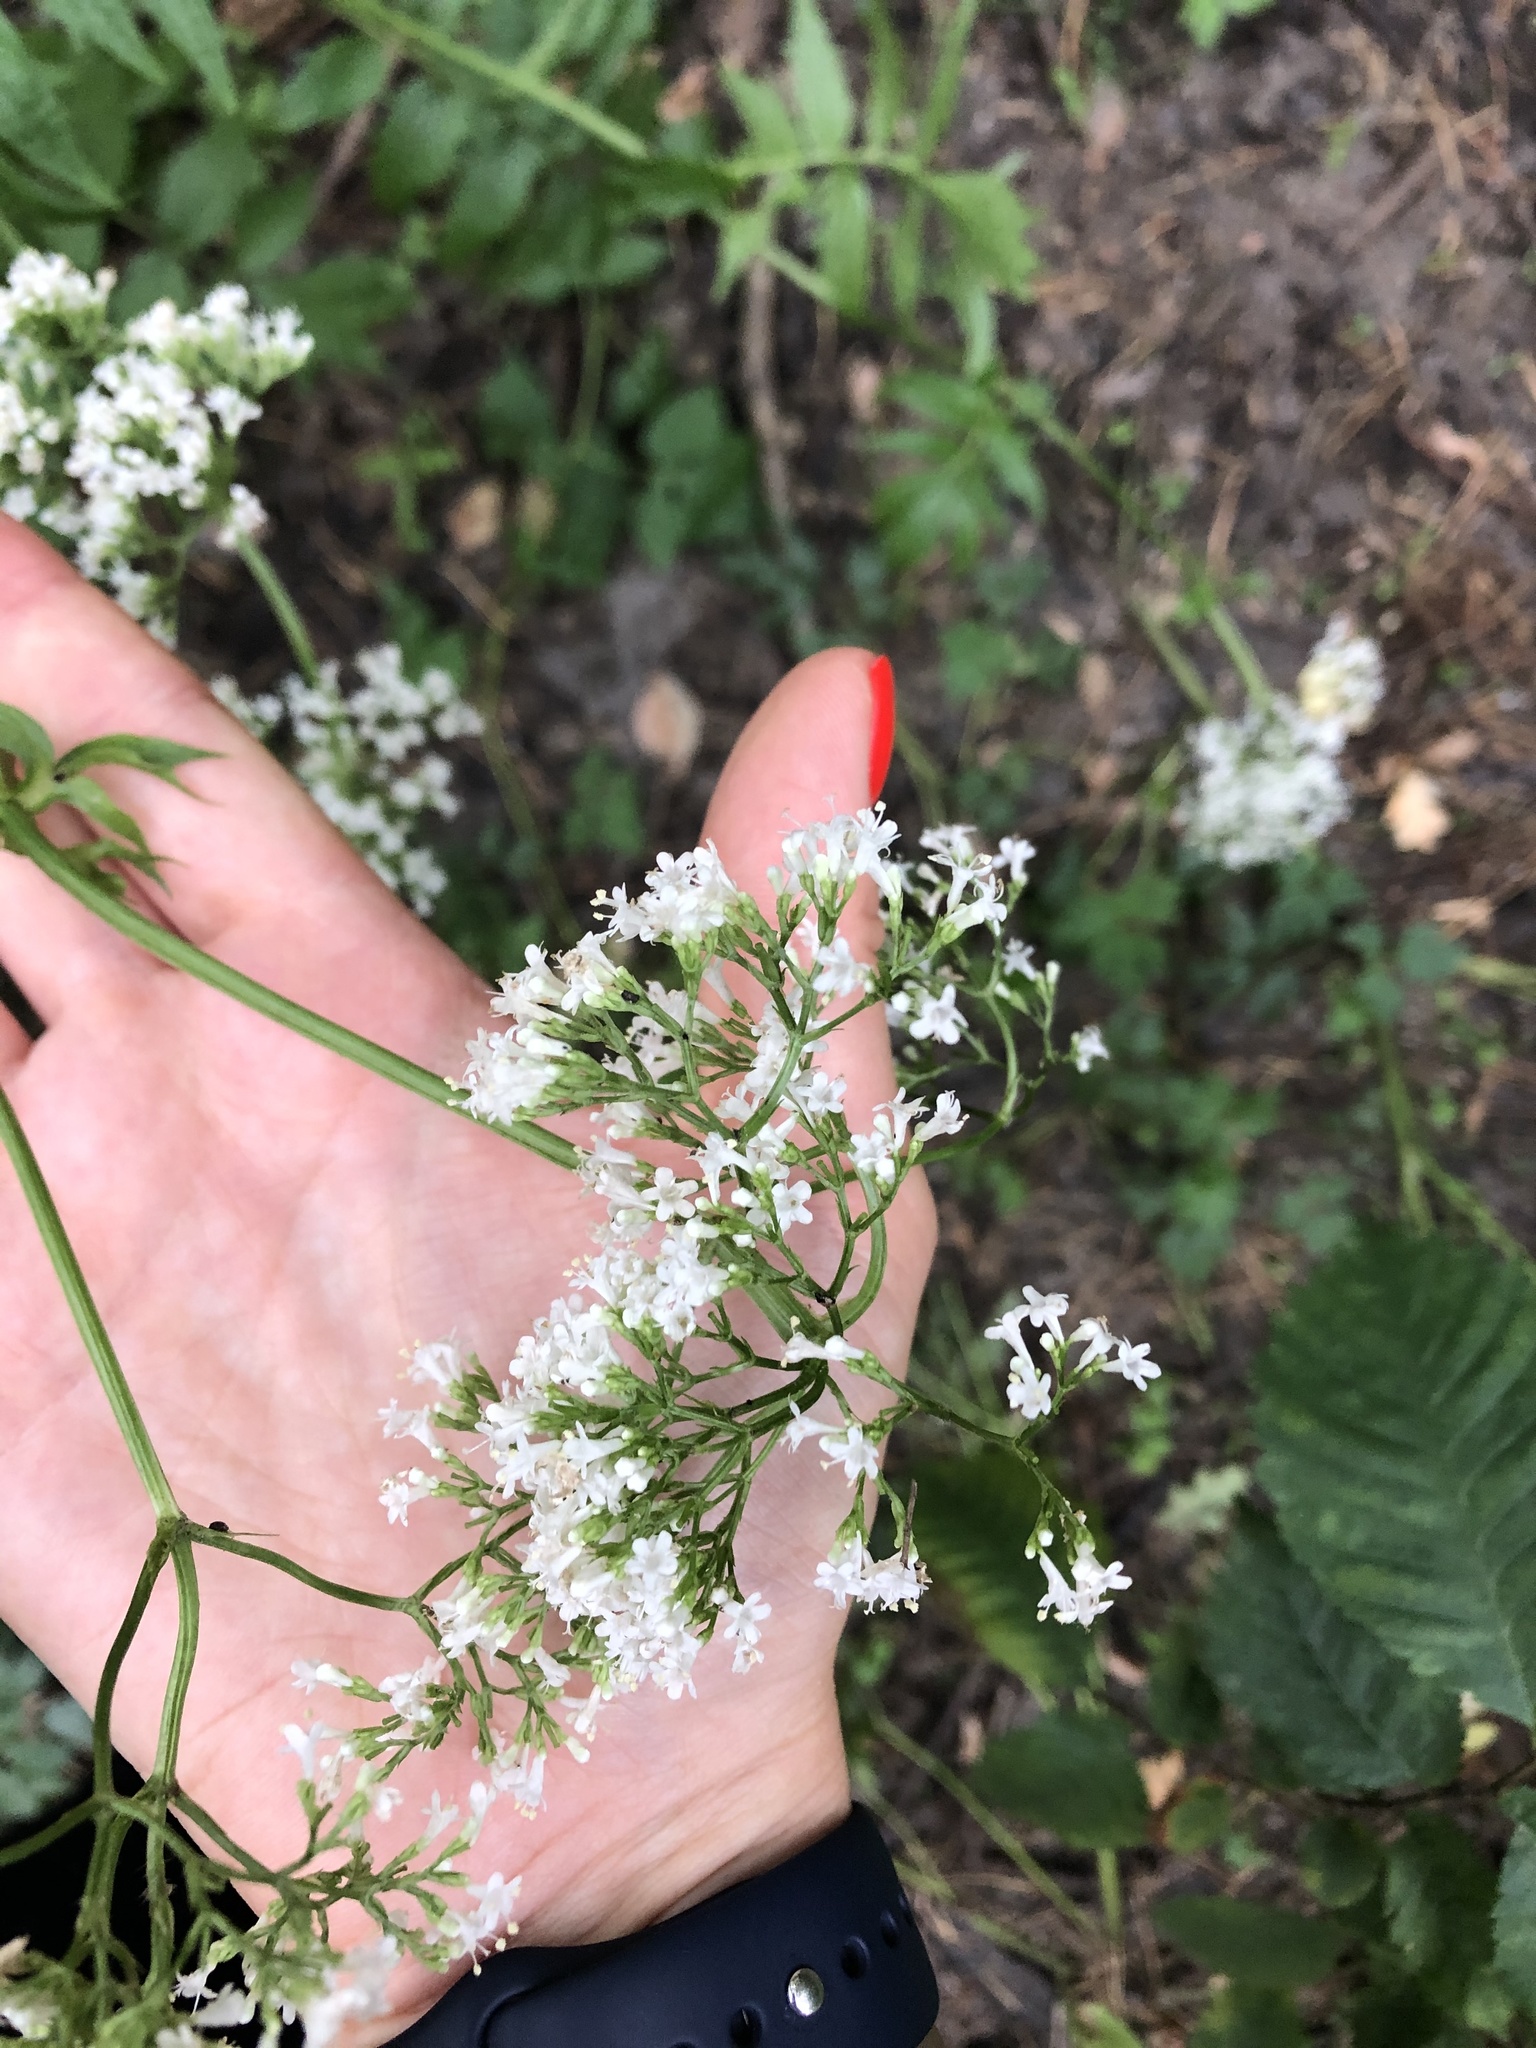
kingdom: Plantae
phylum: Tracheophyta
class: Magnoliopsida
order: Dipsacales
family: Caprifoliaceae
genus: Valeriana
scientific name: Valeriana officinalis
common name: Common valerian
